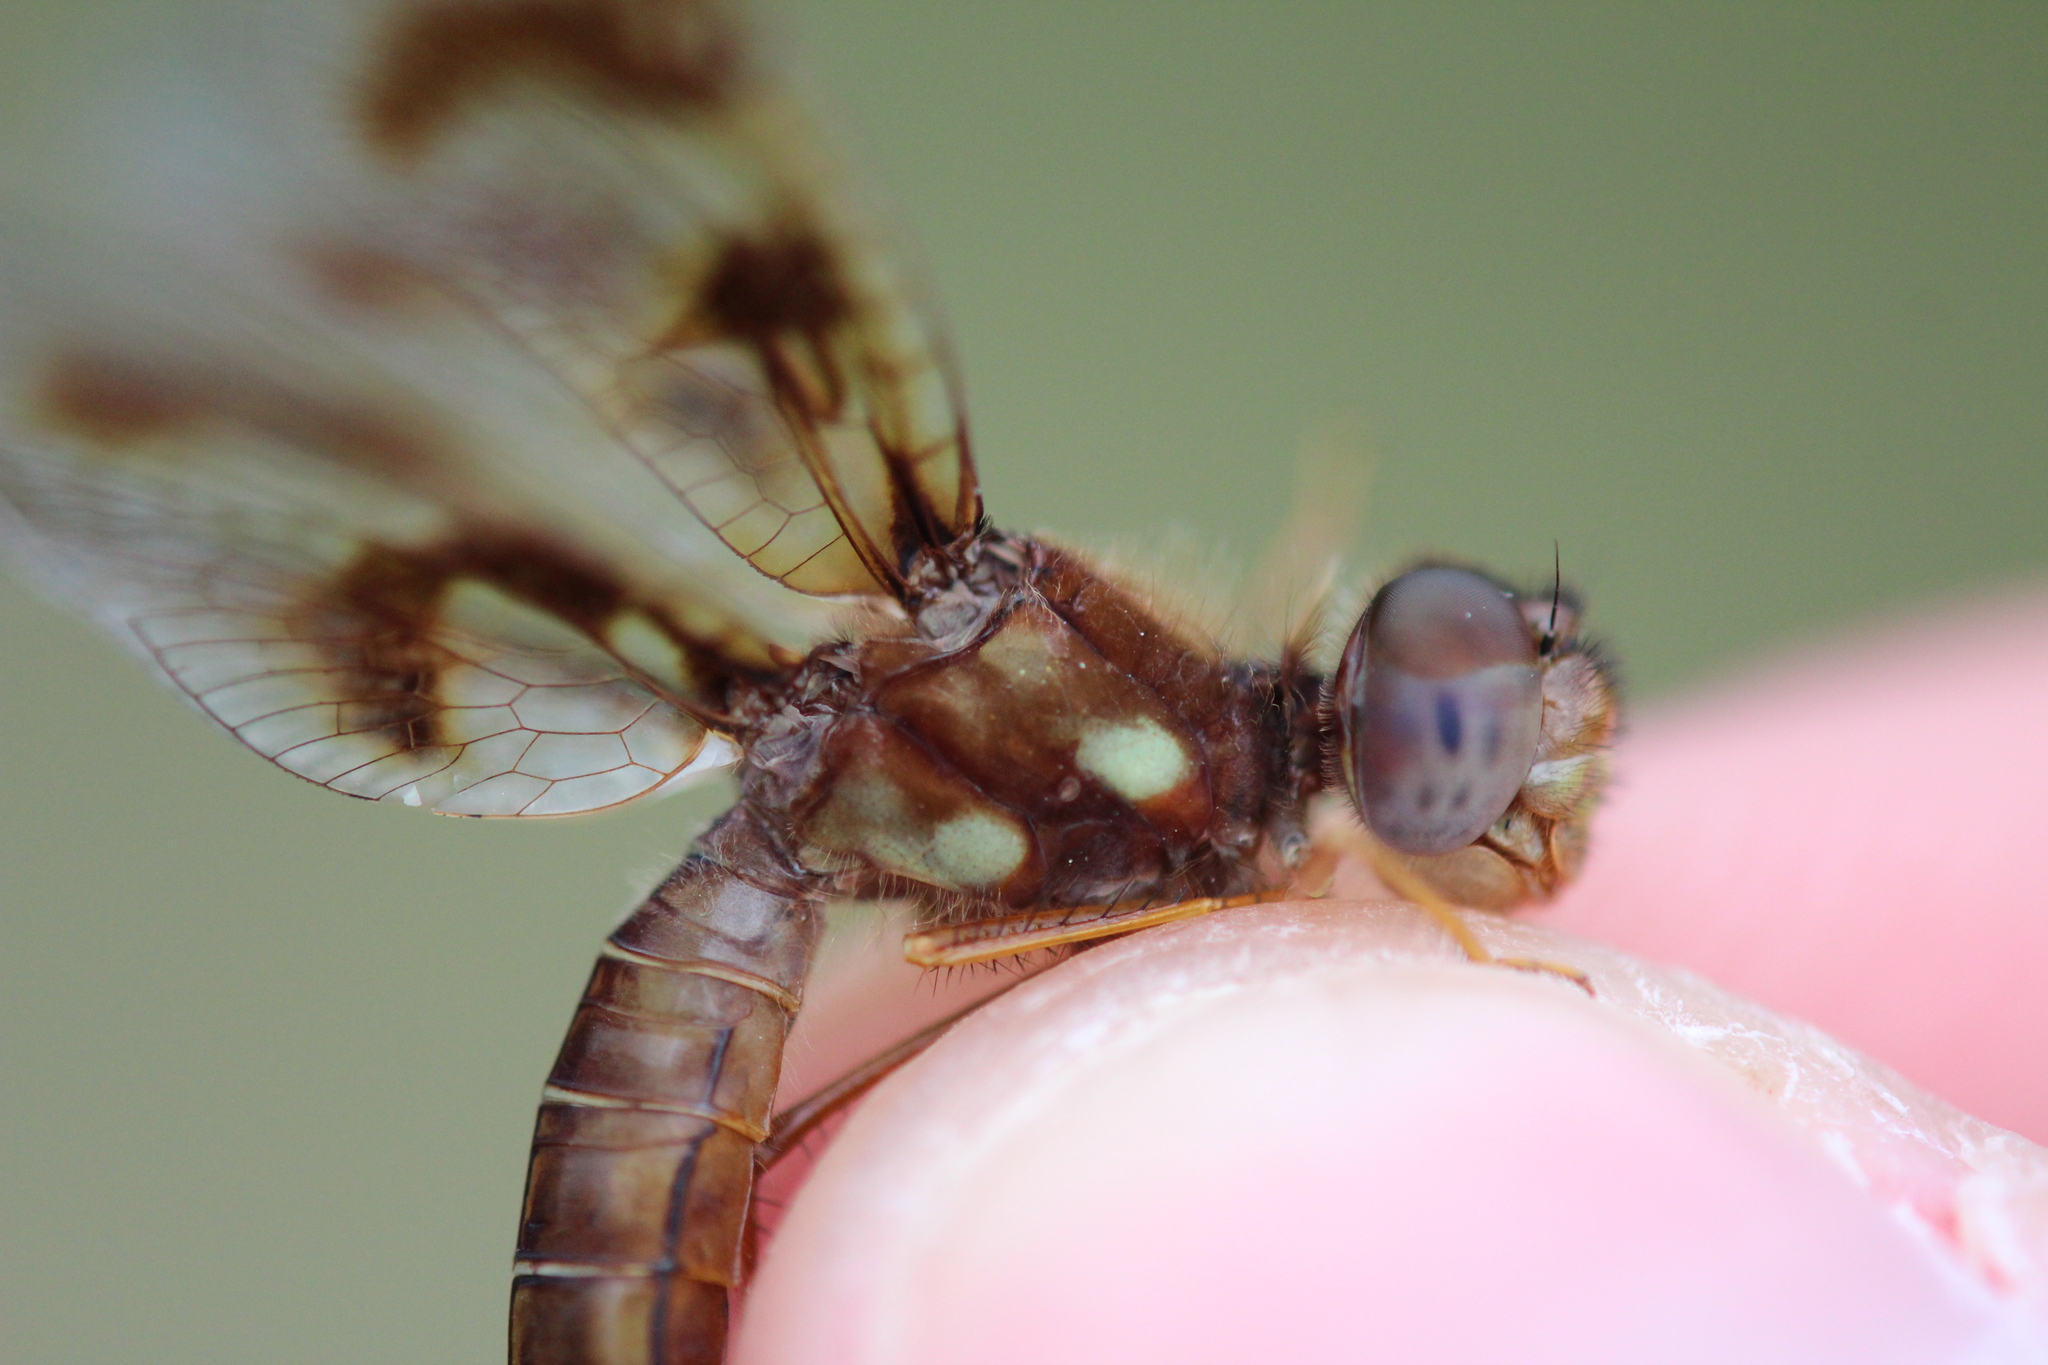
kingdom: Animalia
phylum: Arthropoda
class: Insecta
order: Odonata
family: Libellulidae
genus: Perithemis
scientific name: Perithemis tenera
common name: Eastern amberwing
